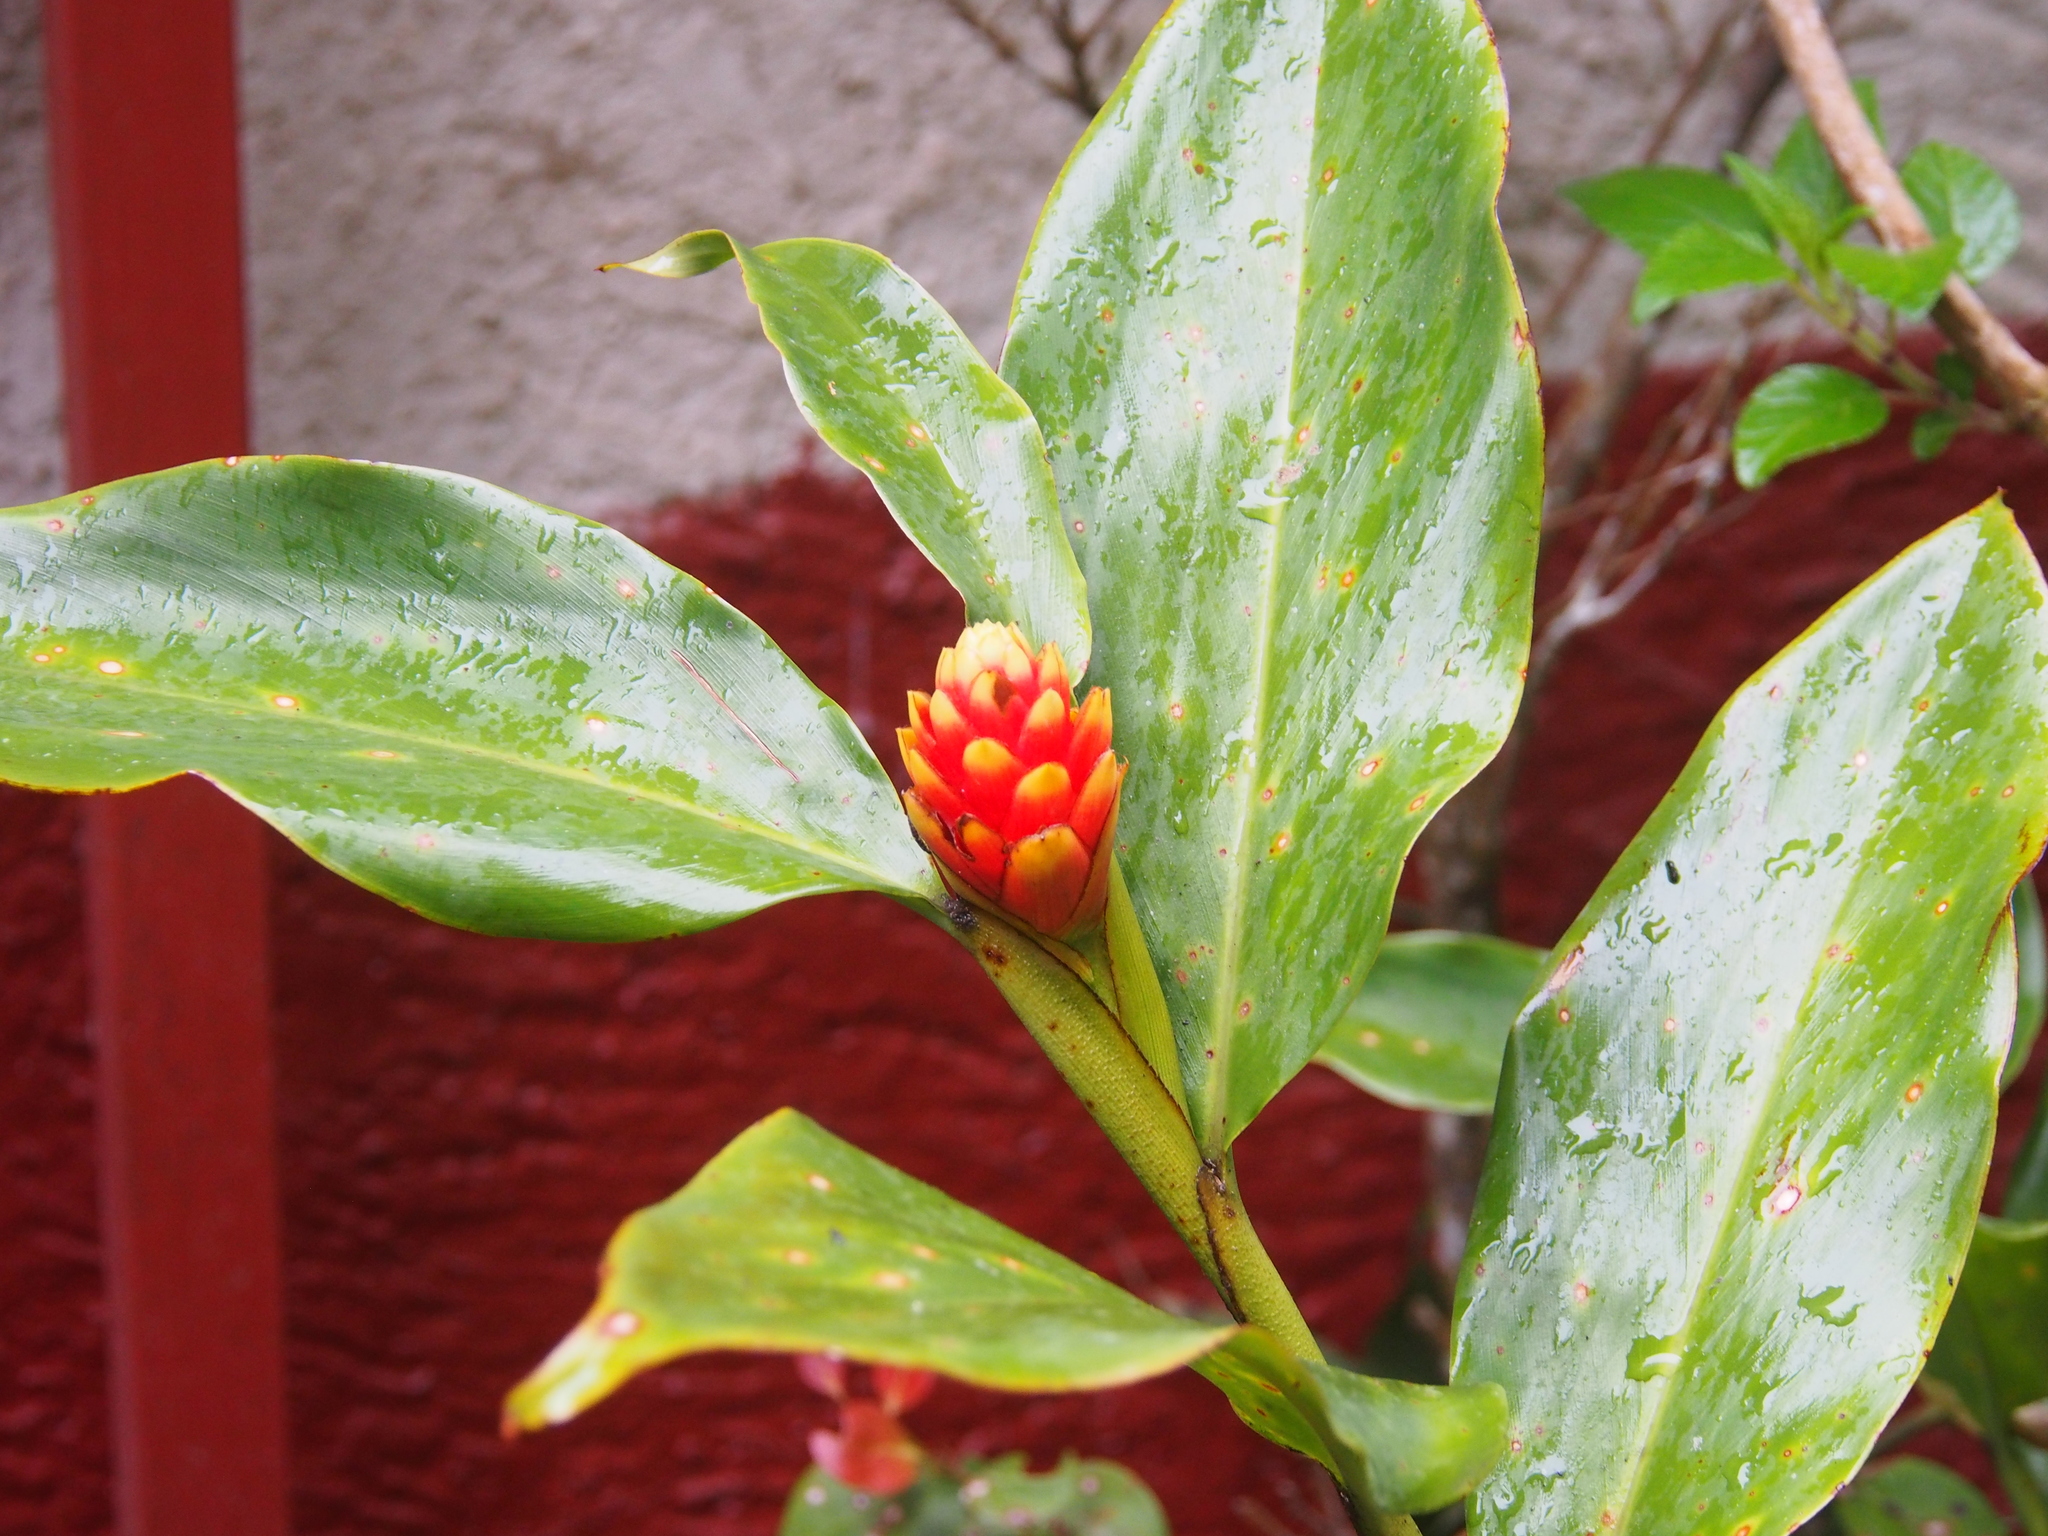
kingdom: Plantae
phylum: Tracheophyta
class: Liliopsida
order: Zingiberales
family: Zingiberaceae
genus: Renealmia
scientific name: Renealmia cernua
